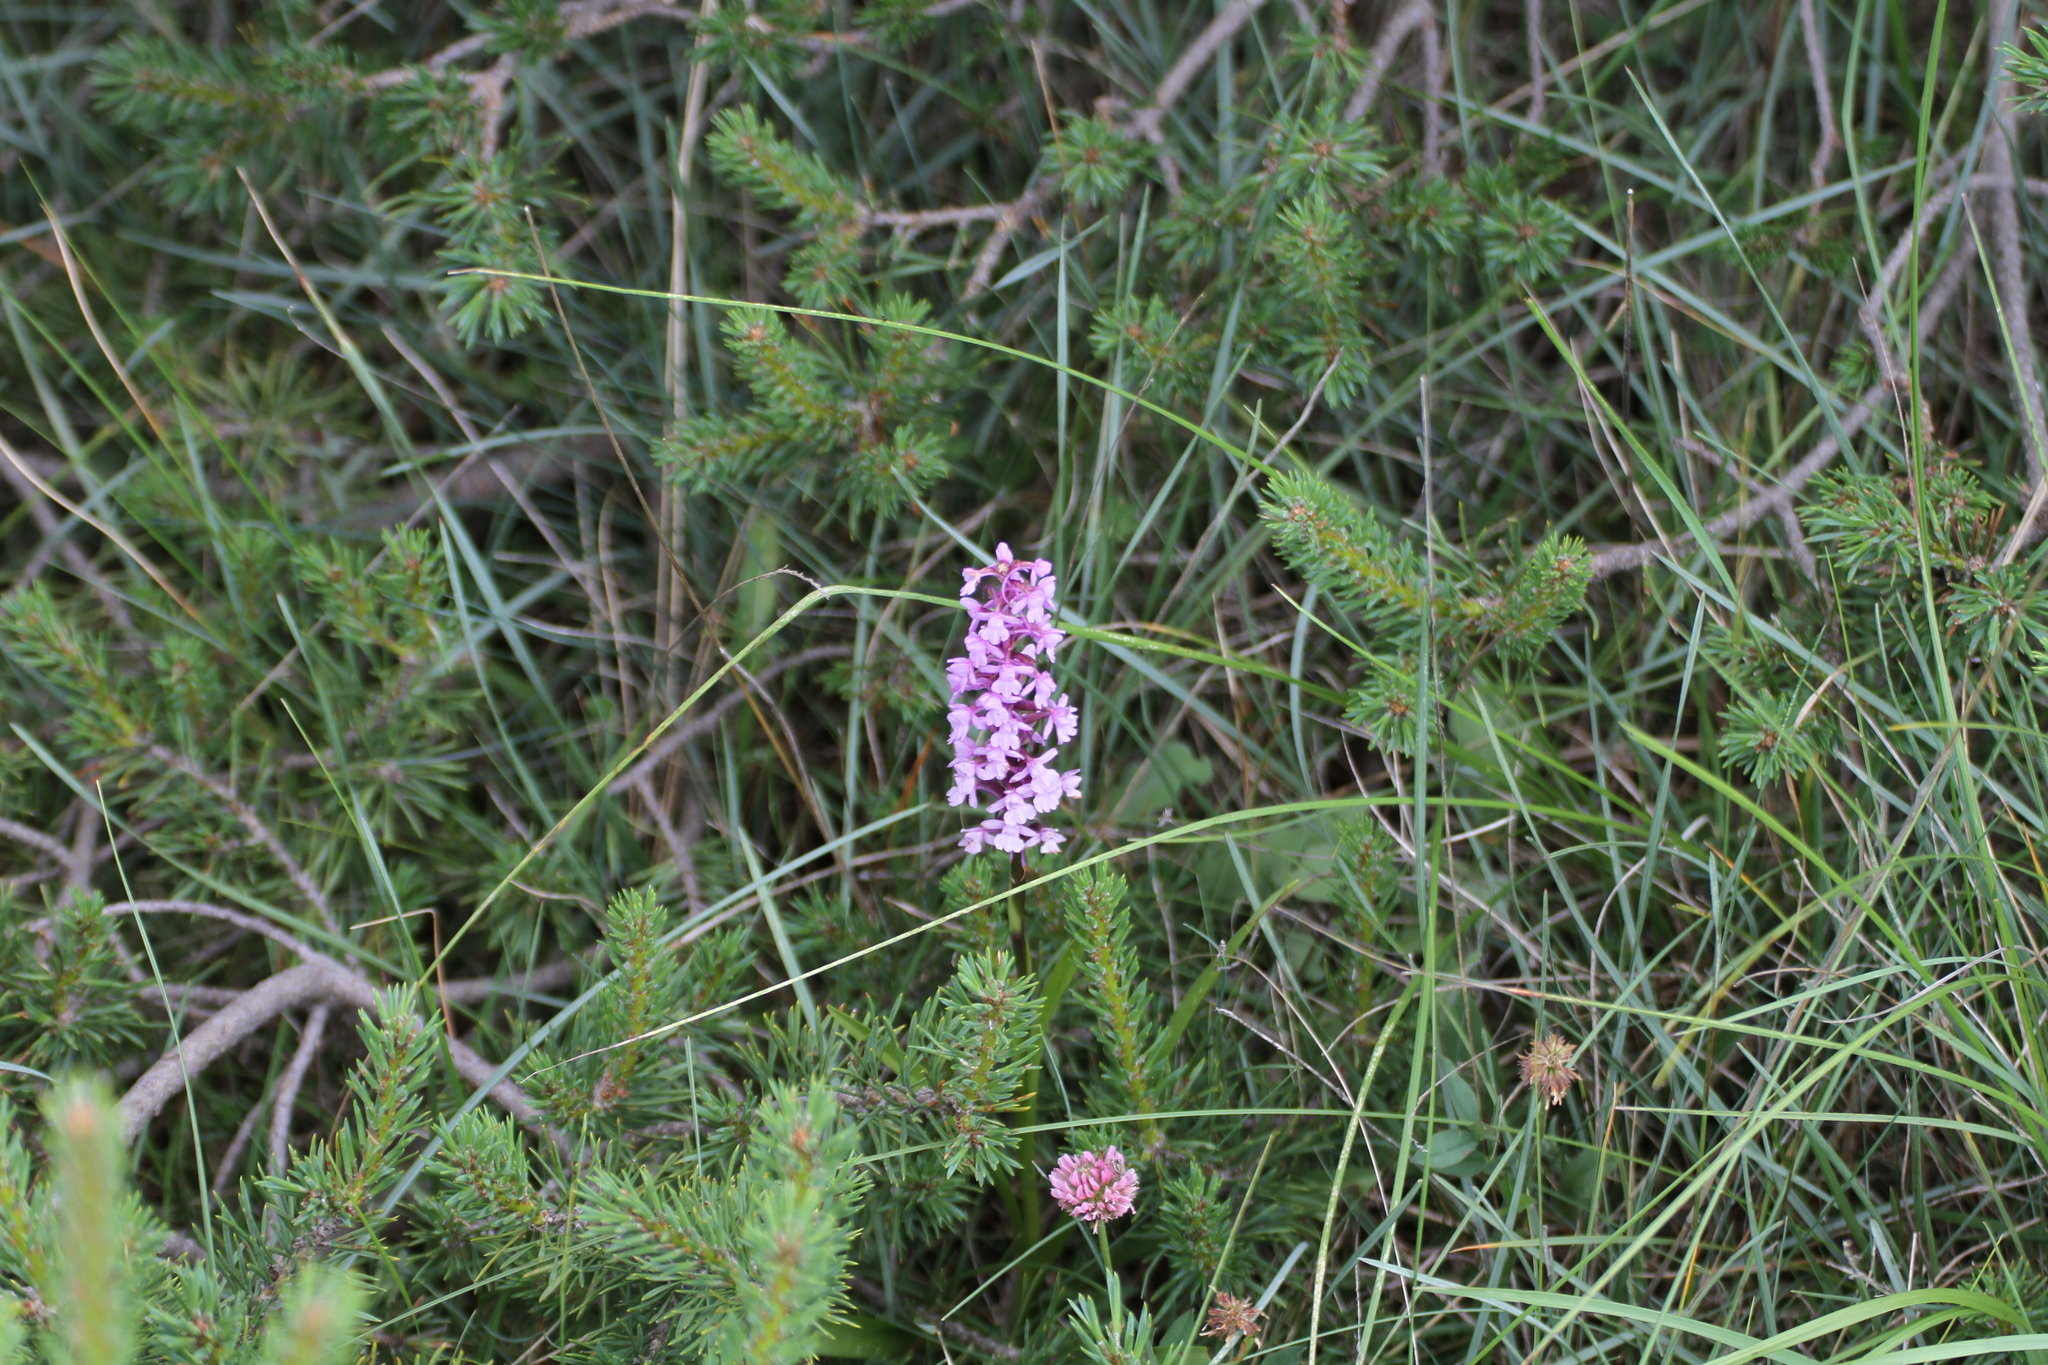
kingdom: Plantae
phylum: Tracheophyta
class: Liliopsida
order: Asparagales
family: Orchidaceae
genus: Gymnadenia
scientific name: Gymnadenia conopsea
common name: Fragrant orchid
